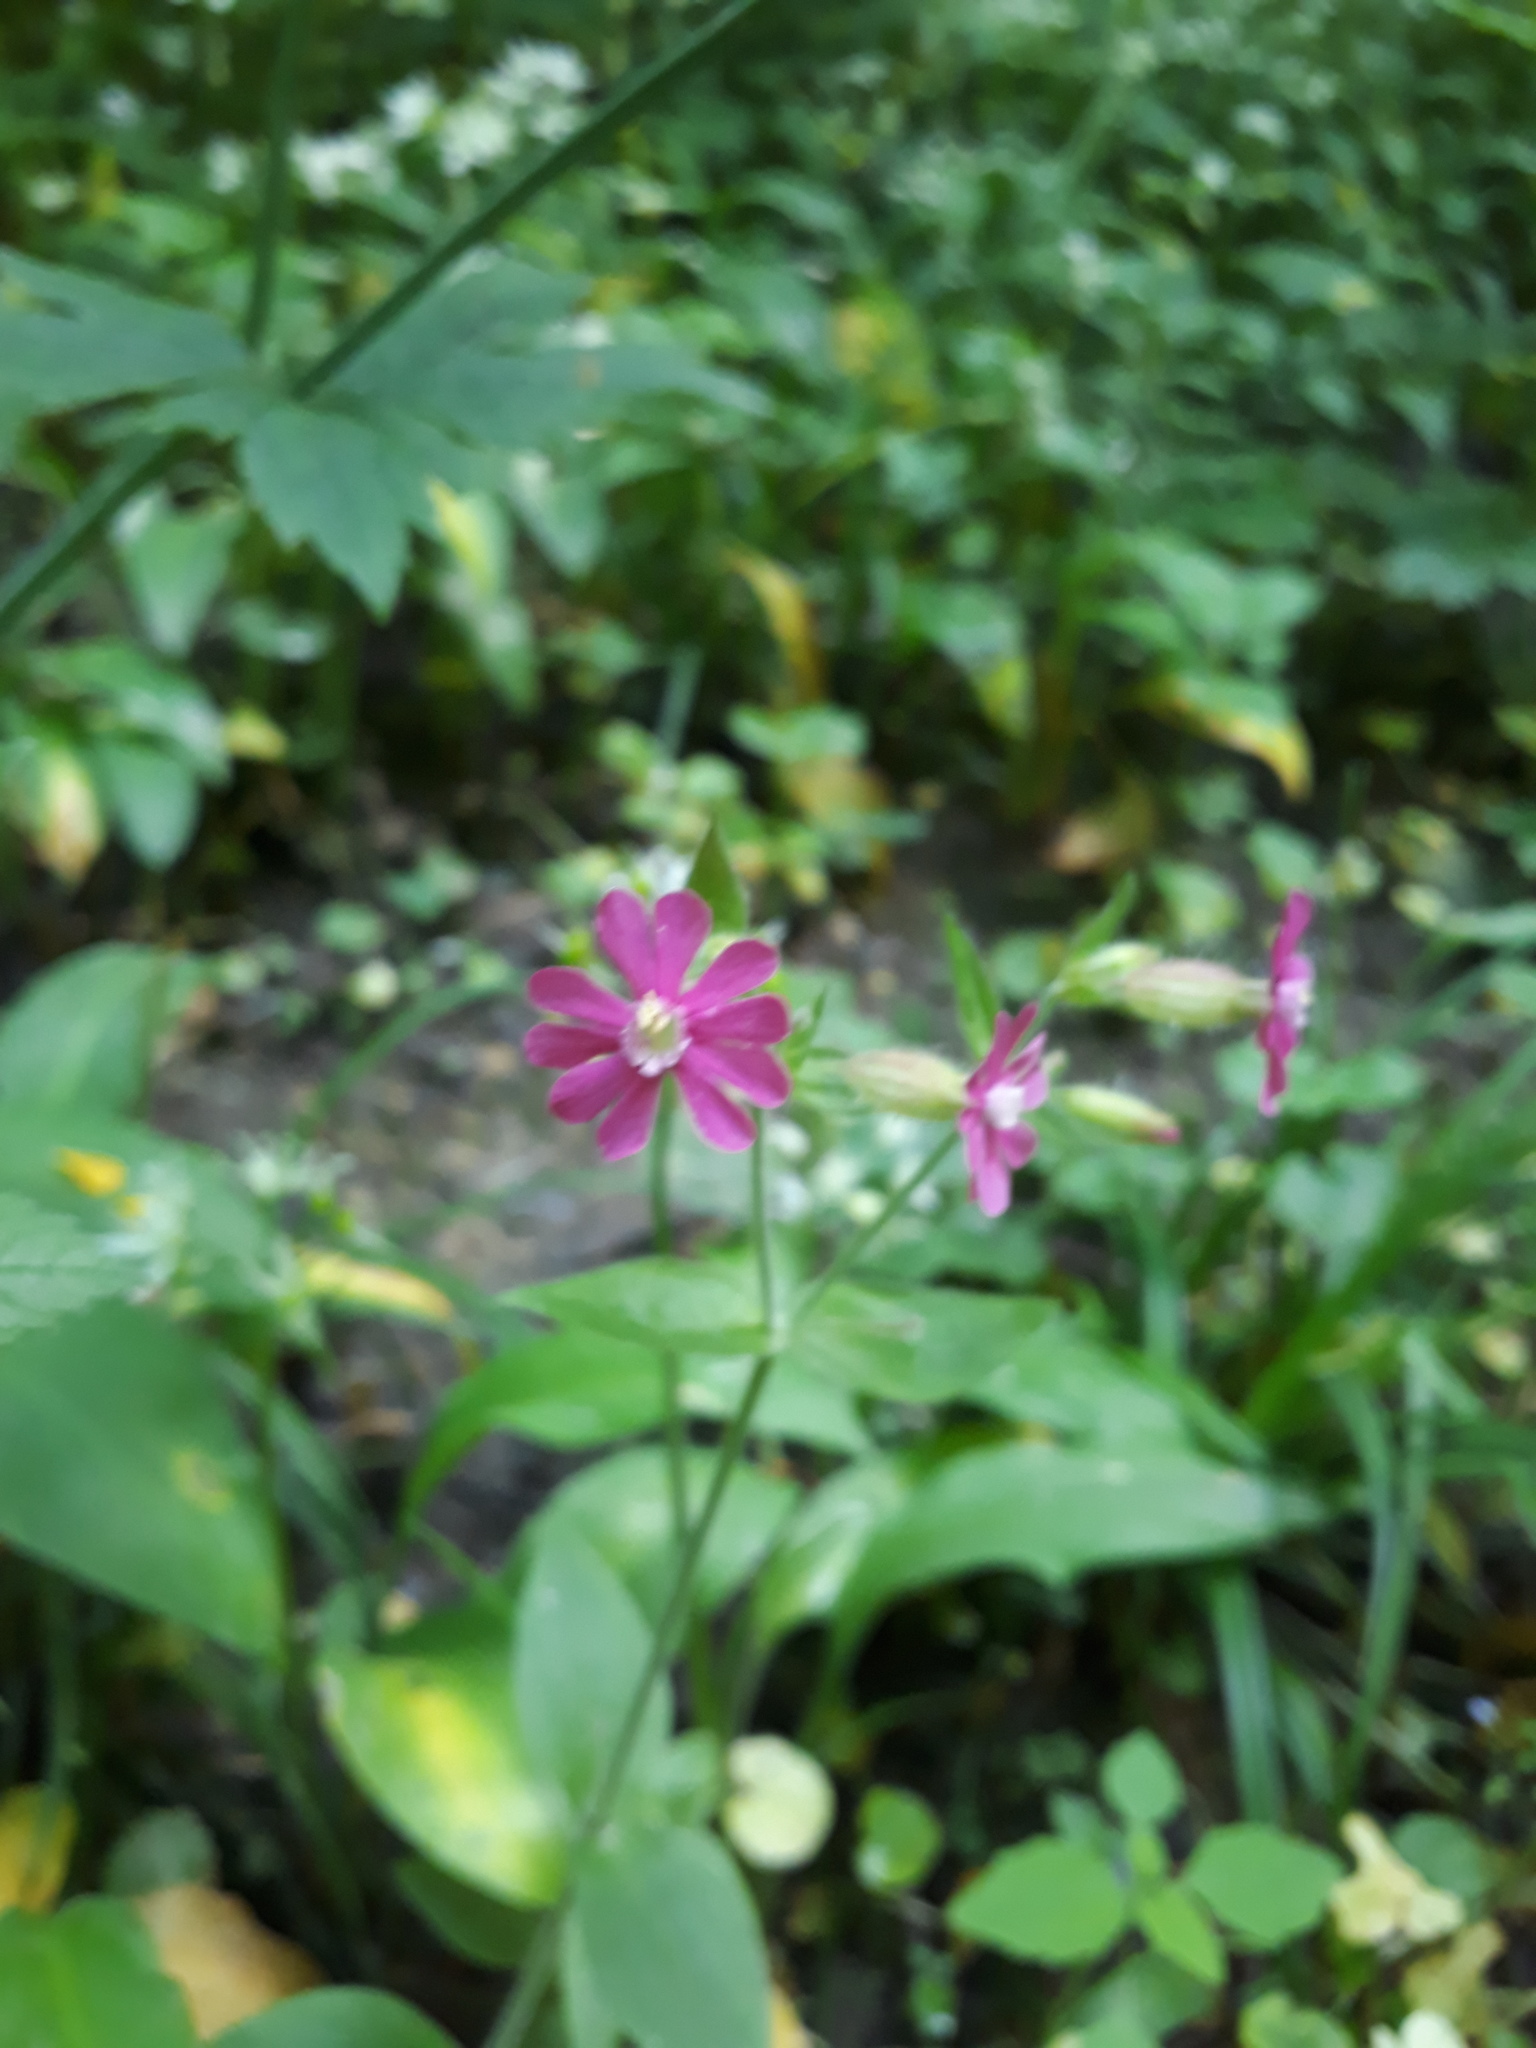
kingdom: Plantae
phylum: Tracheophyta
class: Magnoliopsida
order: Caryophyllales
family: Caryophyllaceae
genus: Silene
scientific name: Silene dioica
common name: Red campion
